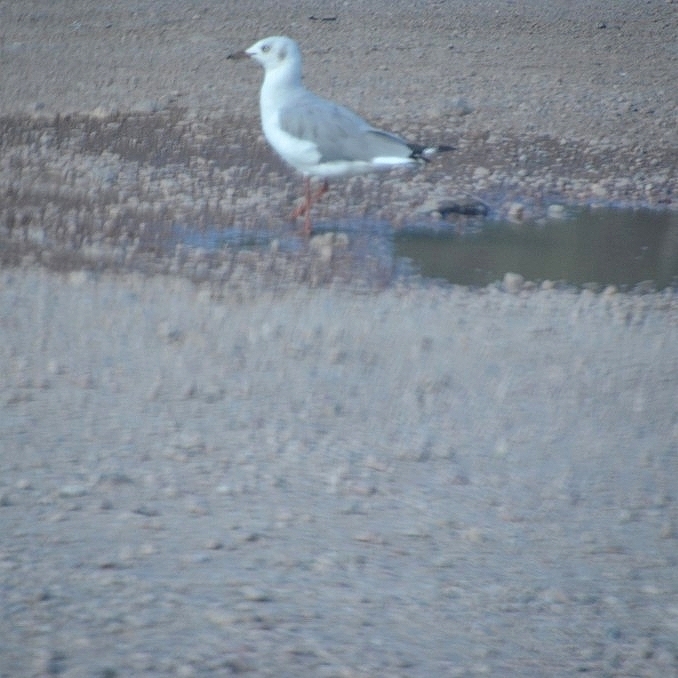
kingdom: Animalia
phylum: Chordata
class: Aves
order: Charadriiformes
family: Laridae
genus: Chroicocephalus
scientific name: Chroicocephalus cirrocephalus
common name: Grey-headed gull
